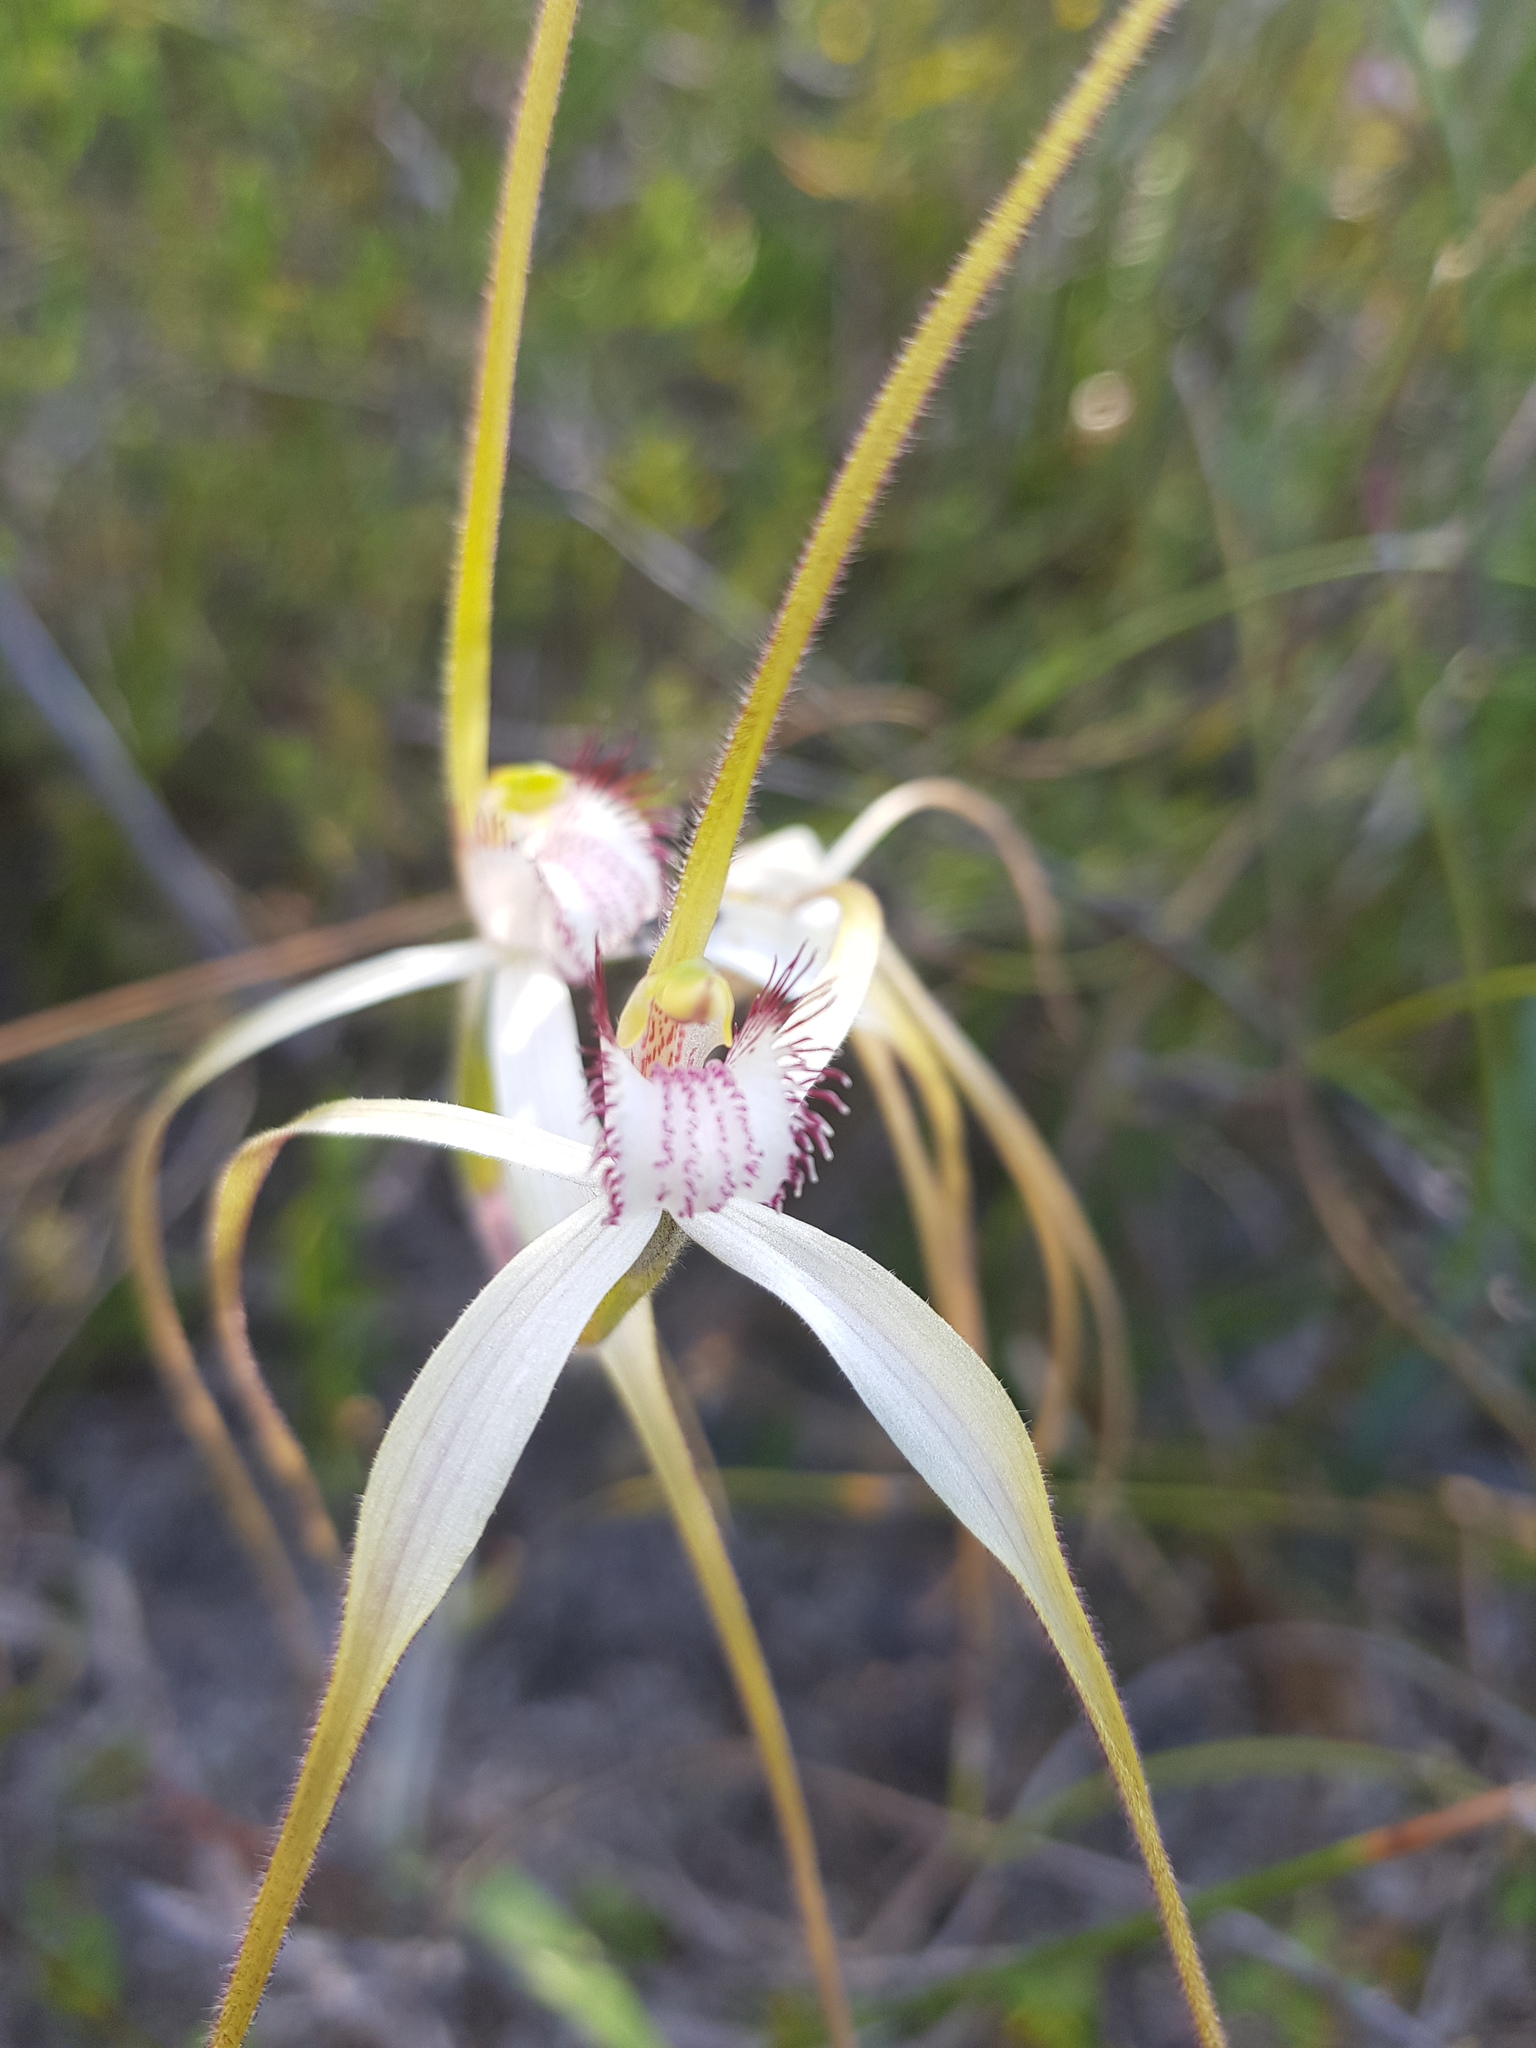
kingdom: Plantae
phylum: Tracheophyta
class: Liliopsida
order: Asparagales
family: Orchidaceae
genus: Caladenia
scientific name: Caladenia longicauda
